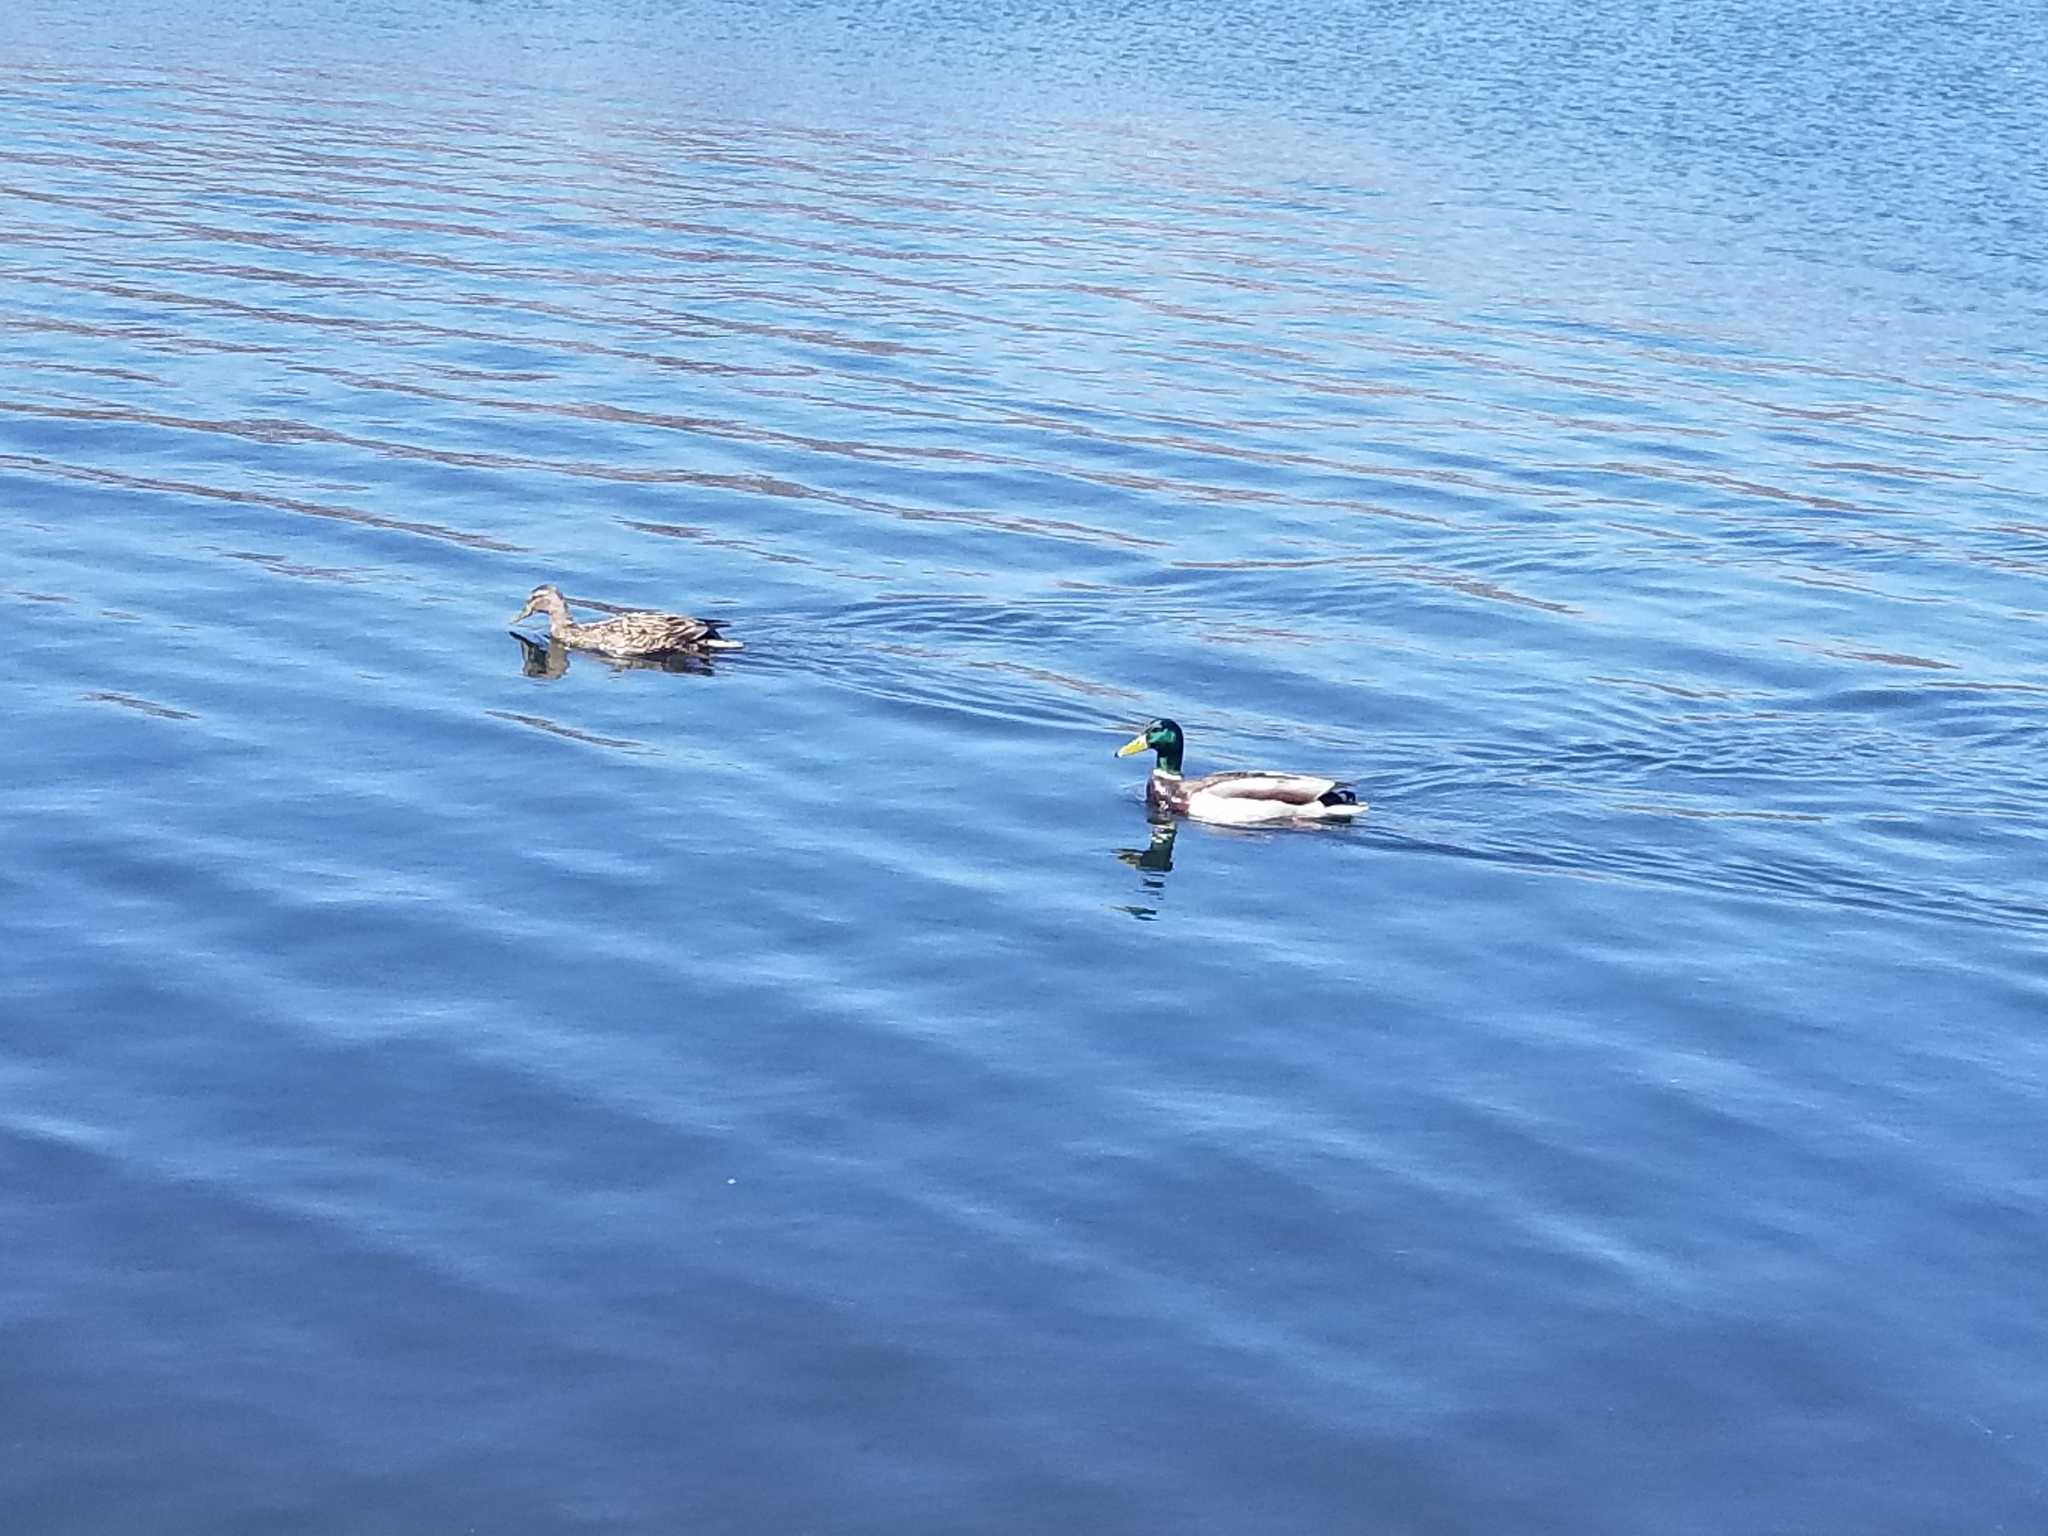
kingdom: Animalia
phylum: Chordata
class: Aves
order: Anseriformes
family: Anatidae
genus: Anas
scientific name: Anas platyrhynchos
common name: Mallard
